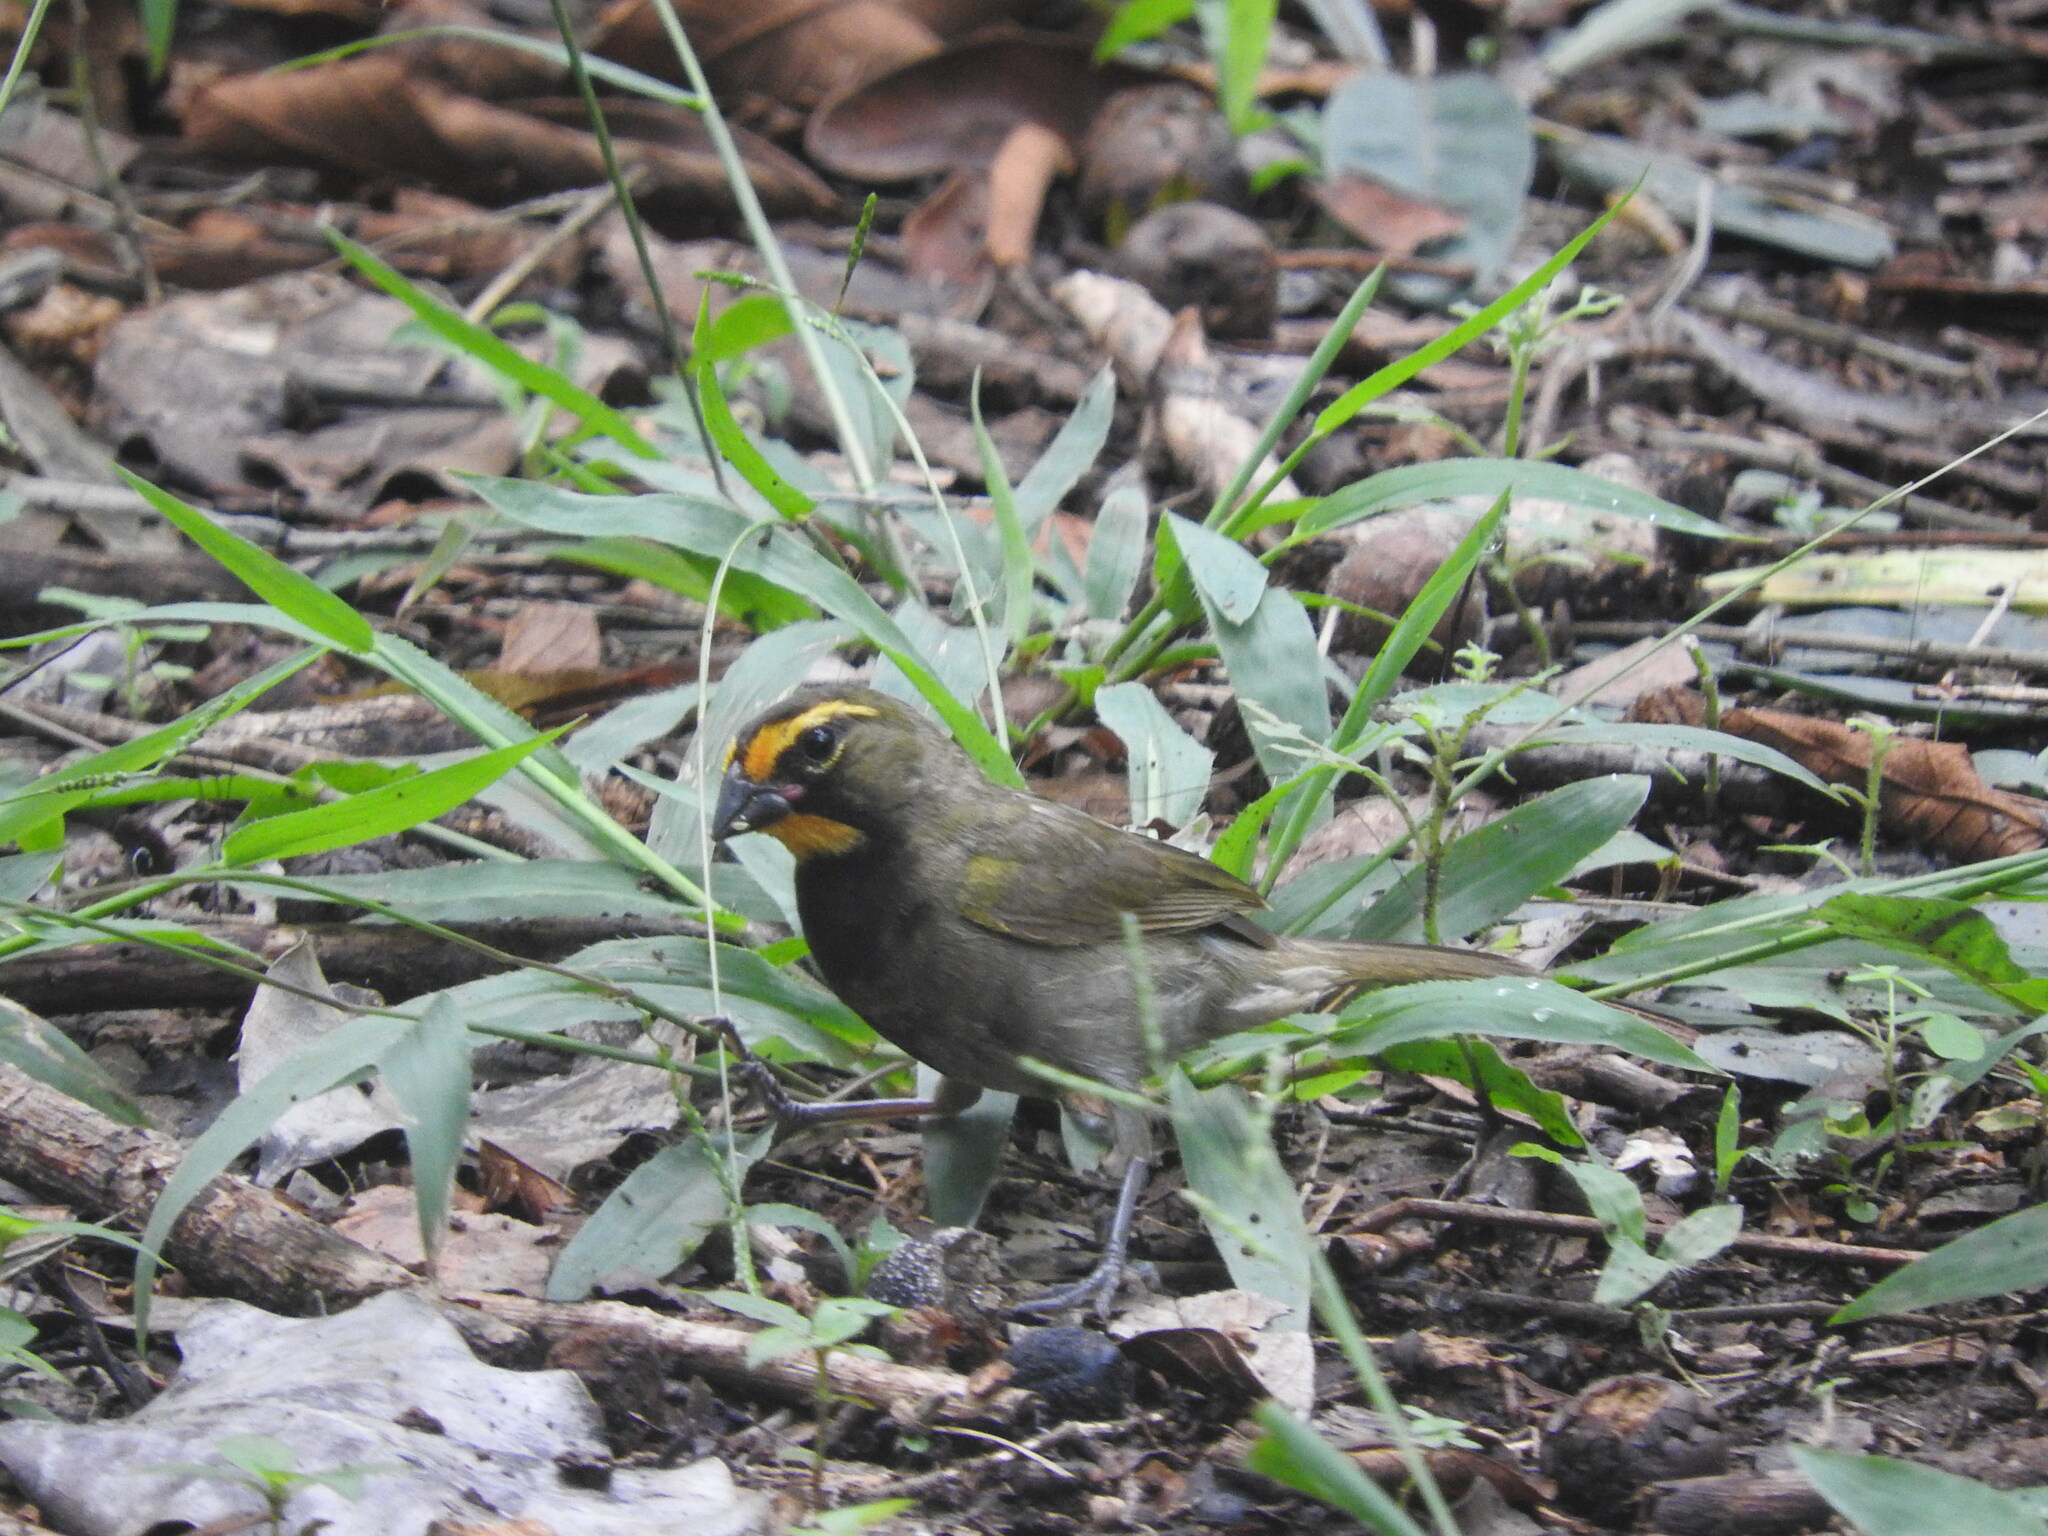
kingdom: Animalia
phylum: Chordata
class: Aves
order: Passeriformes
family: Thraupidae
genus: Tiaris
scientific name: Tiaris olivaceus
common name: Yellow-faced grassquit
